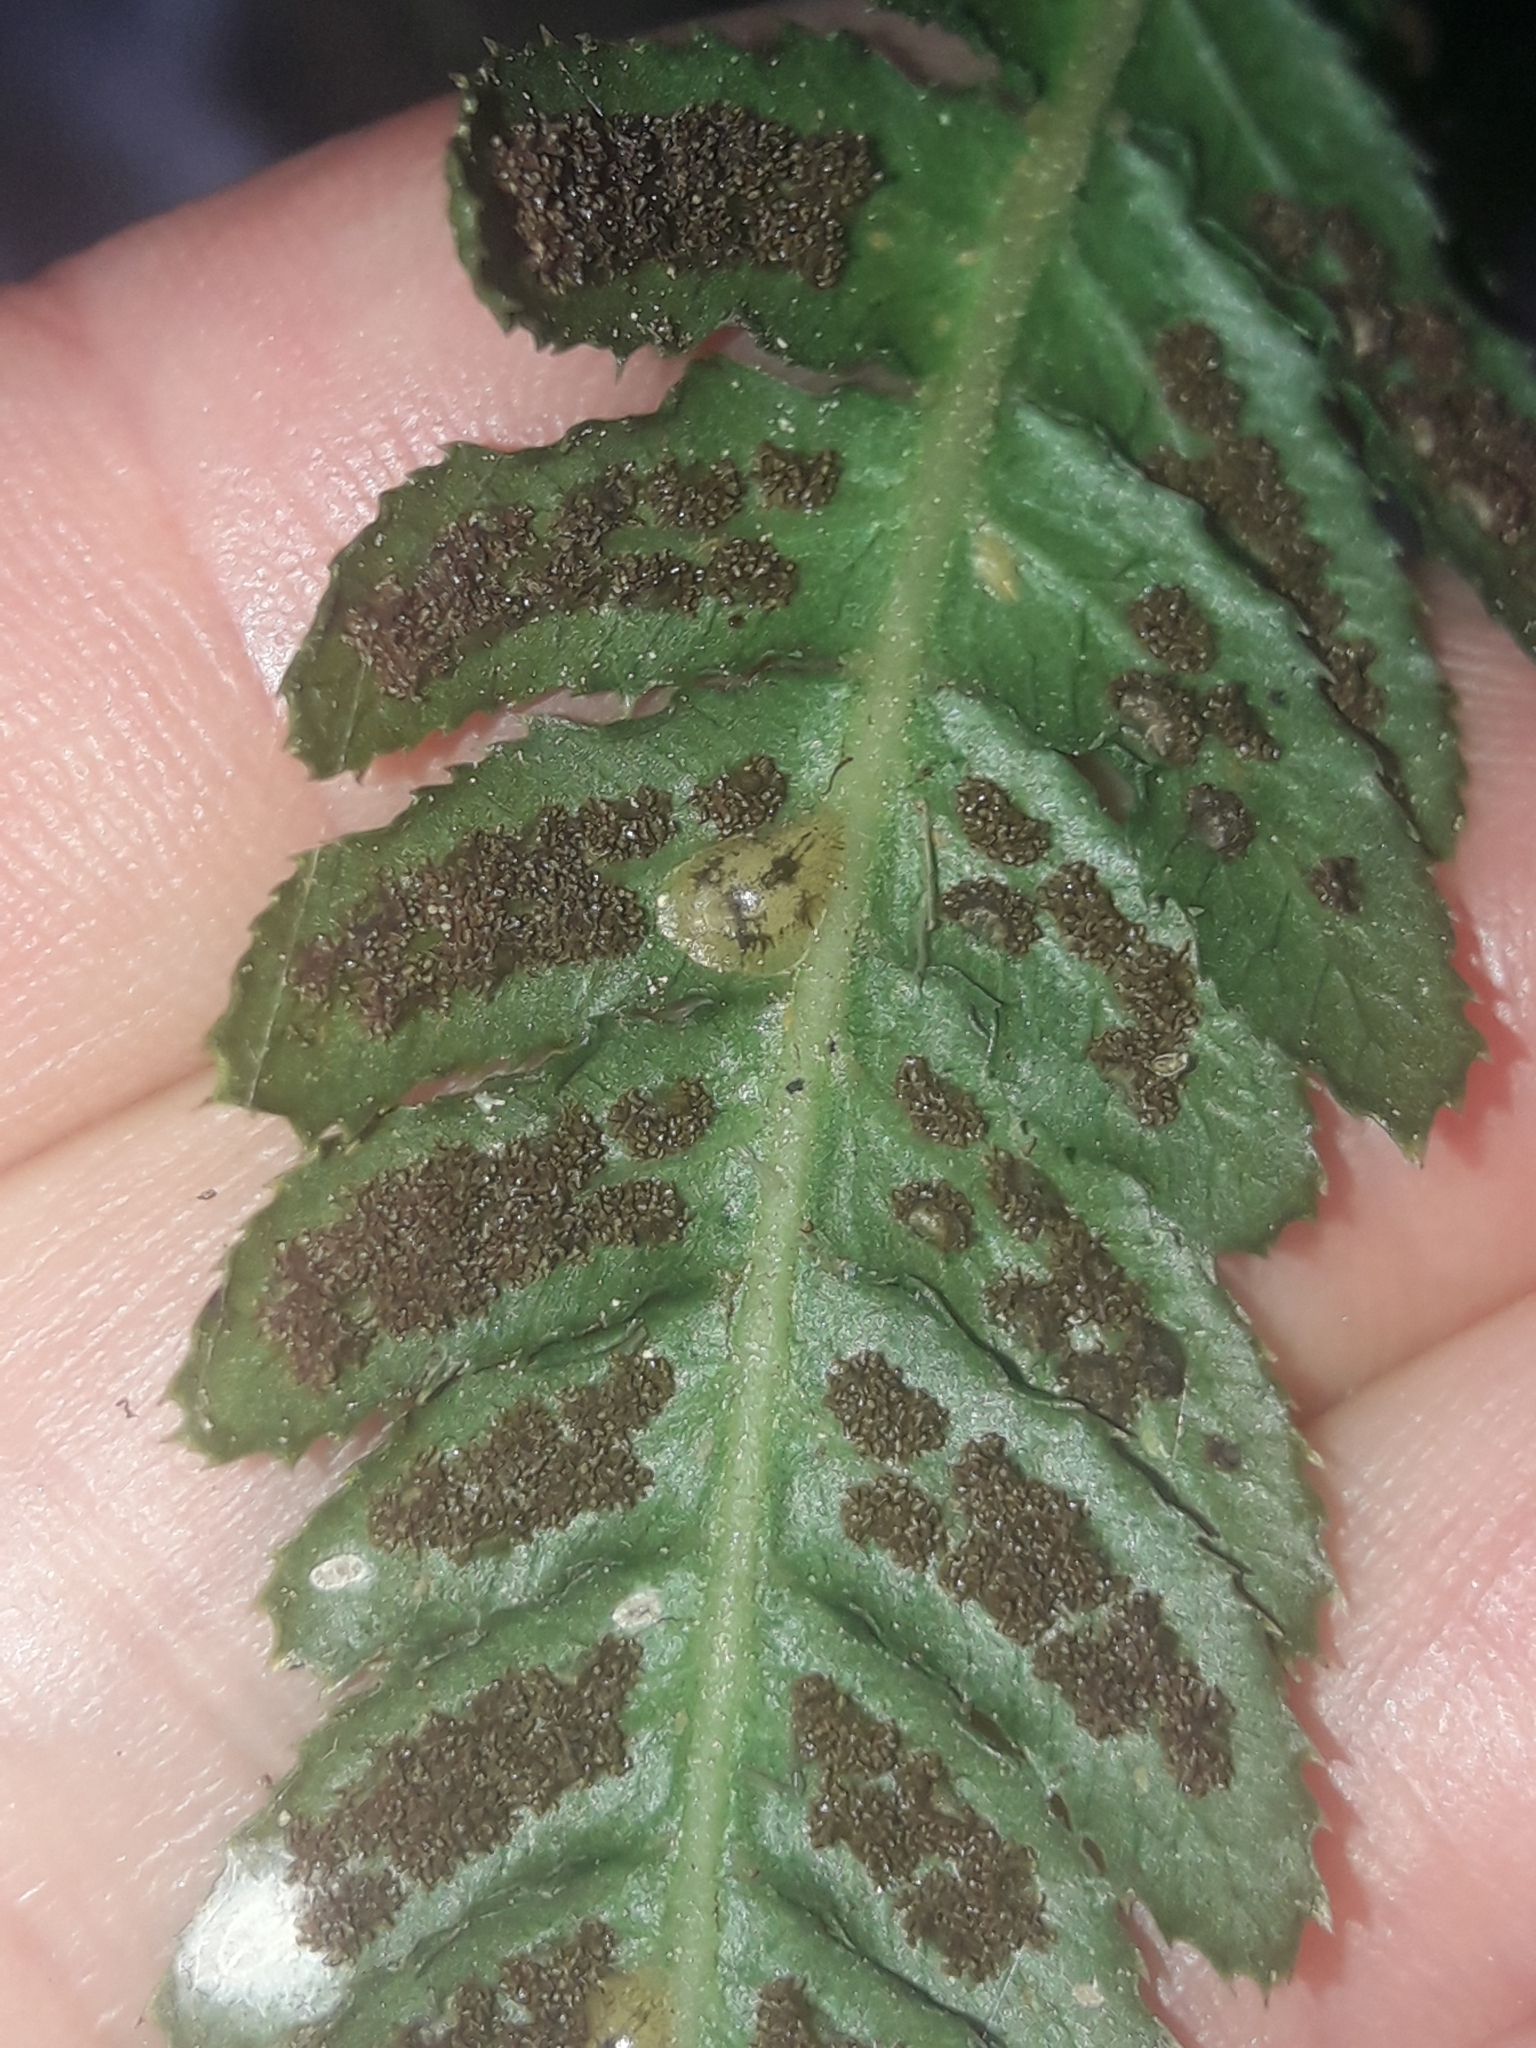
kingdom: Plantae
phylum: Tracheophyta
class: Polypodiopsida
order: Polypodiales
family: Blechnaceae
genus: Doodia
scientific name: Doodia australis
